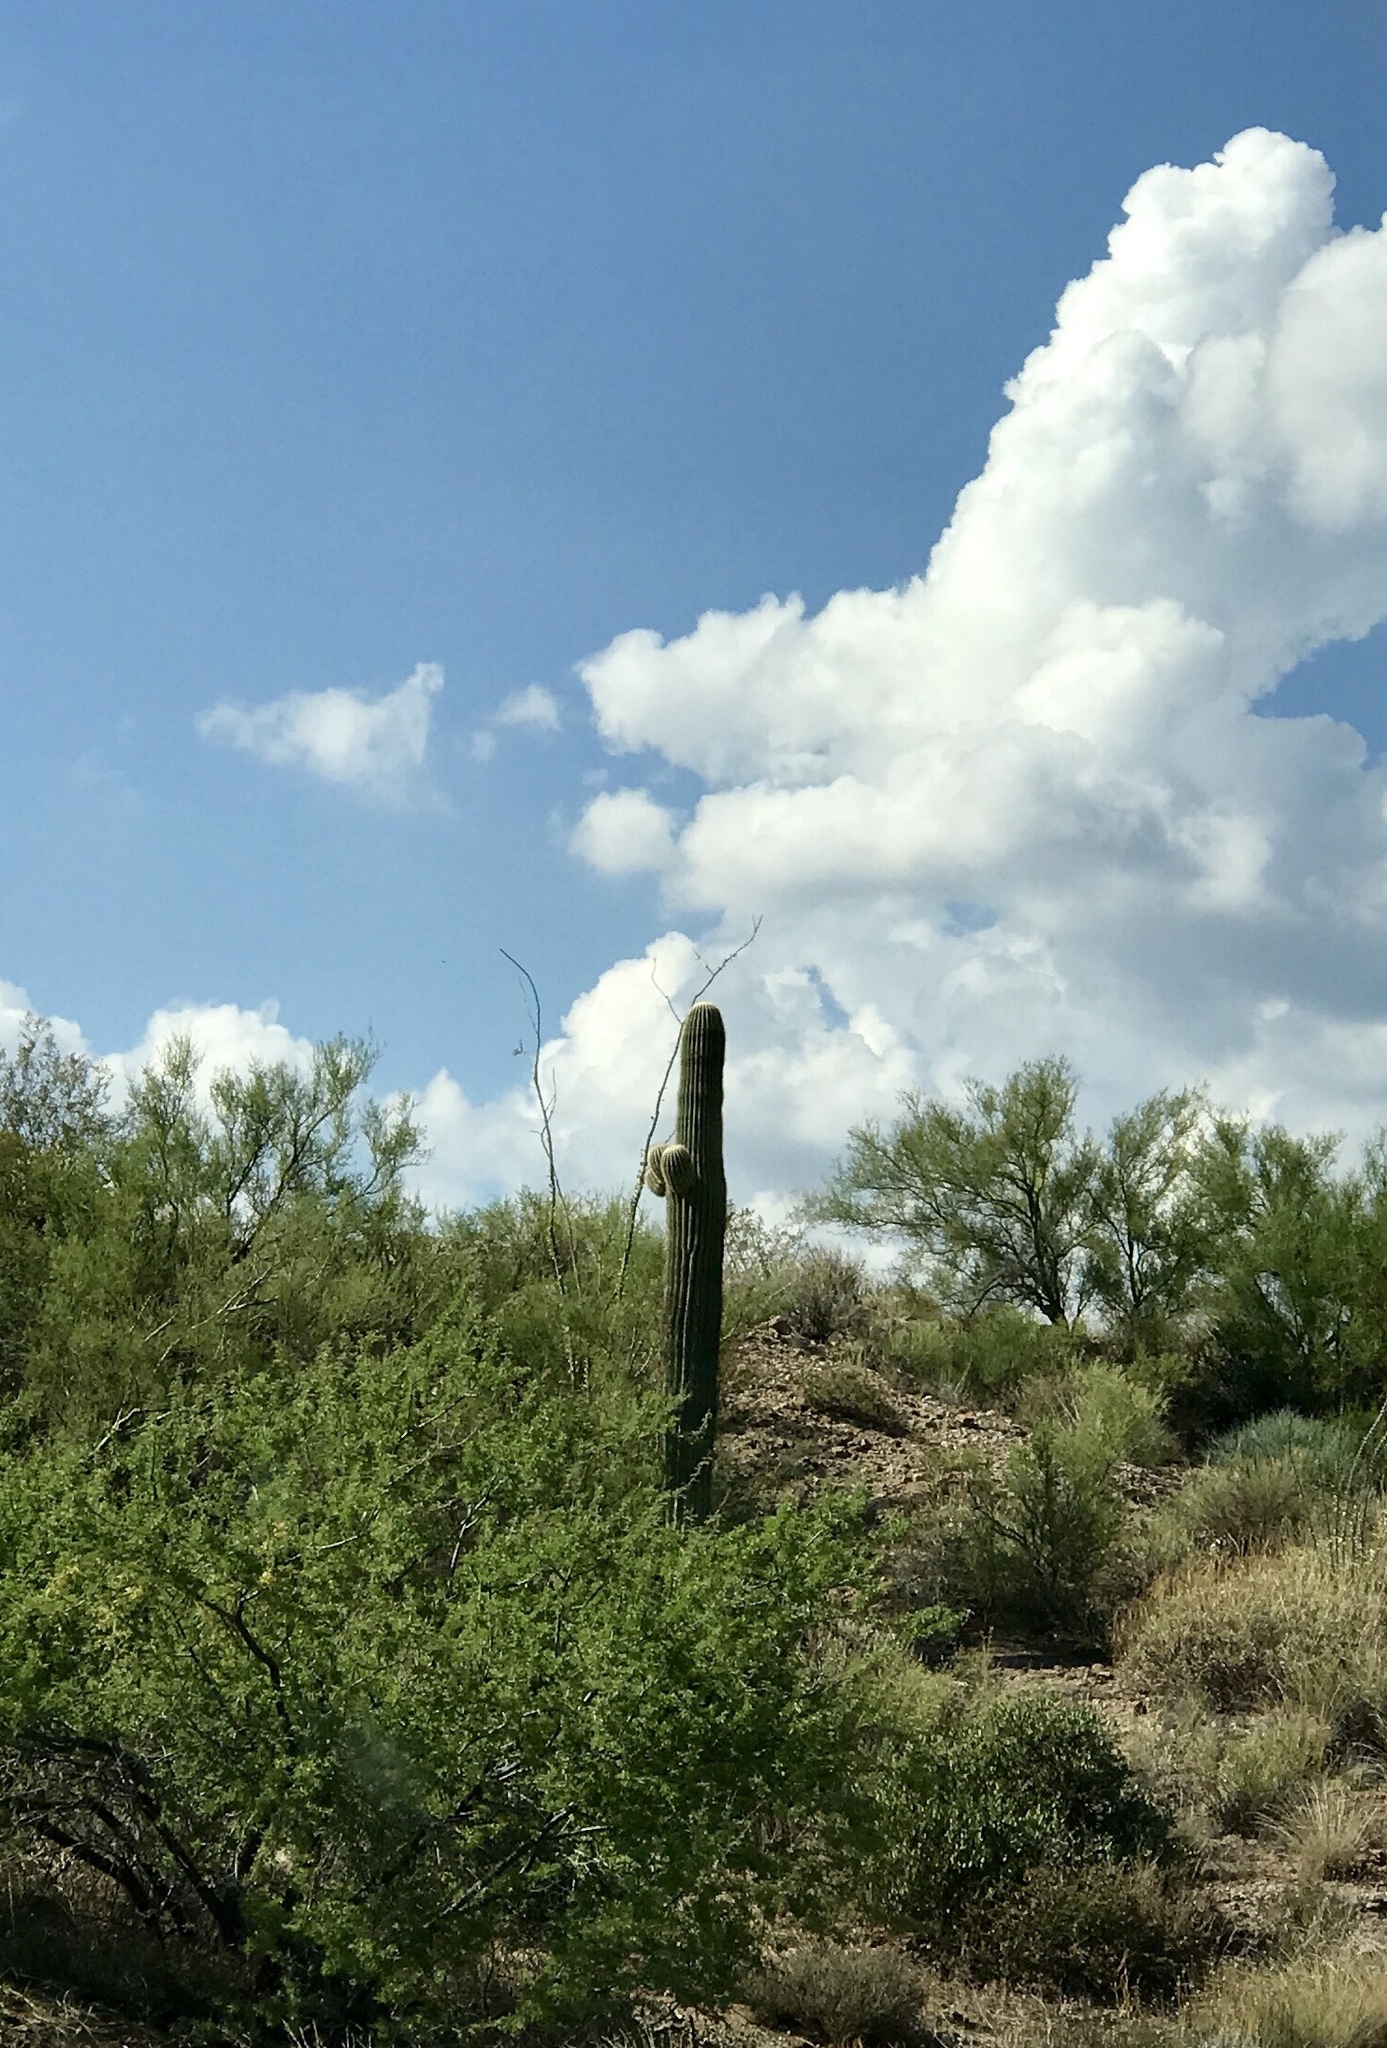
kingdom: Plantae
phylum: Tracheophyta
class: Magnoliopsida
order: Caryophyllales
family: Cactaceae
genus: Carnegiea
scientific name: Carnegiea gigantea
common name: Saguaro
